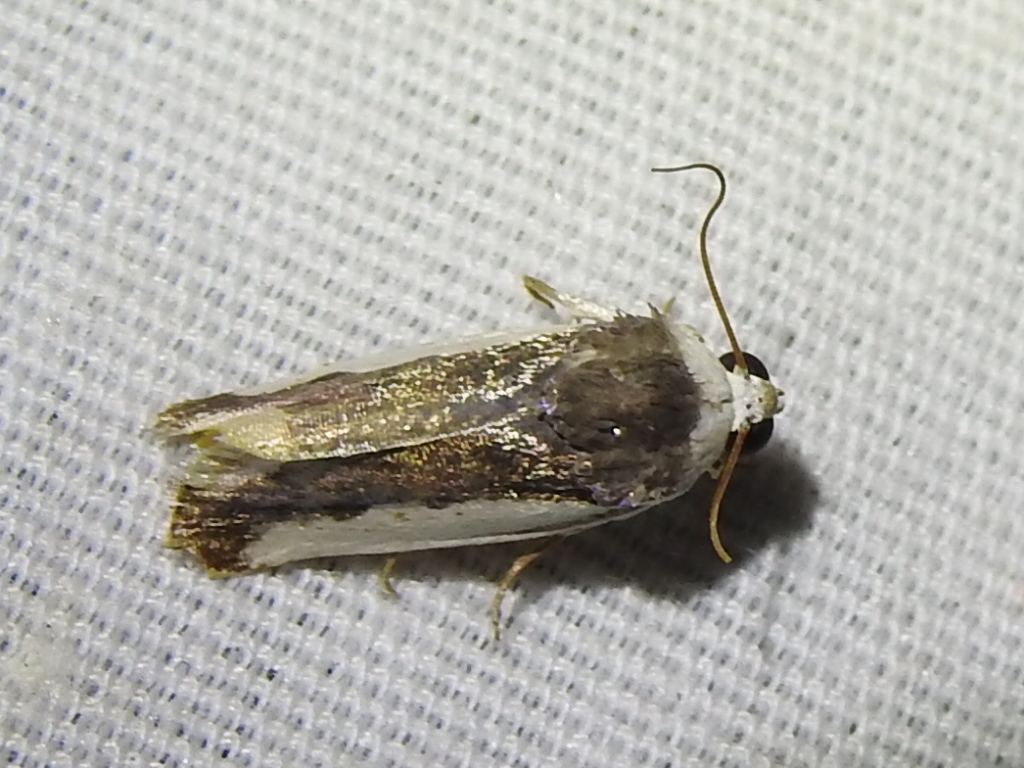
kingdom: Animalia
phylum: Arthropoda
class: Insecta
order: Lepidoptera
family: Noctuidae
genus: Acontia
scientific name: Acontia Tarache expolita
